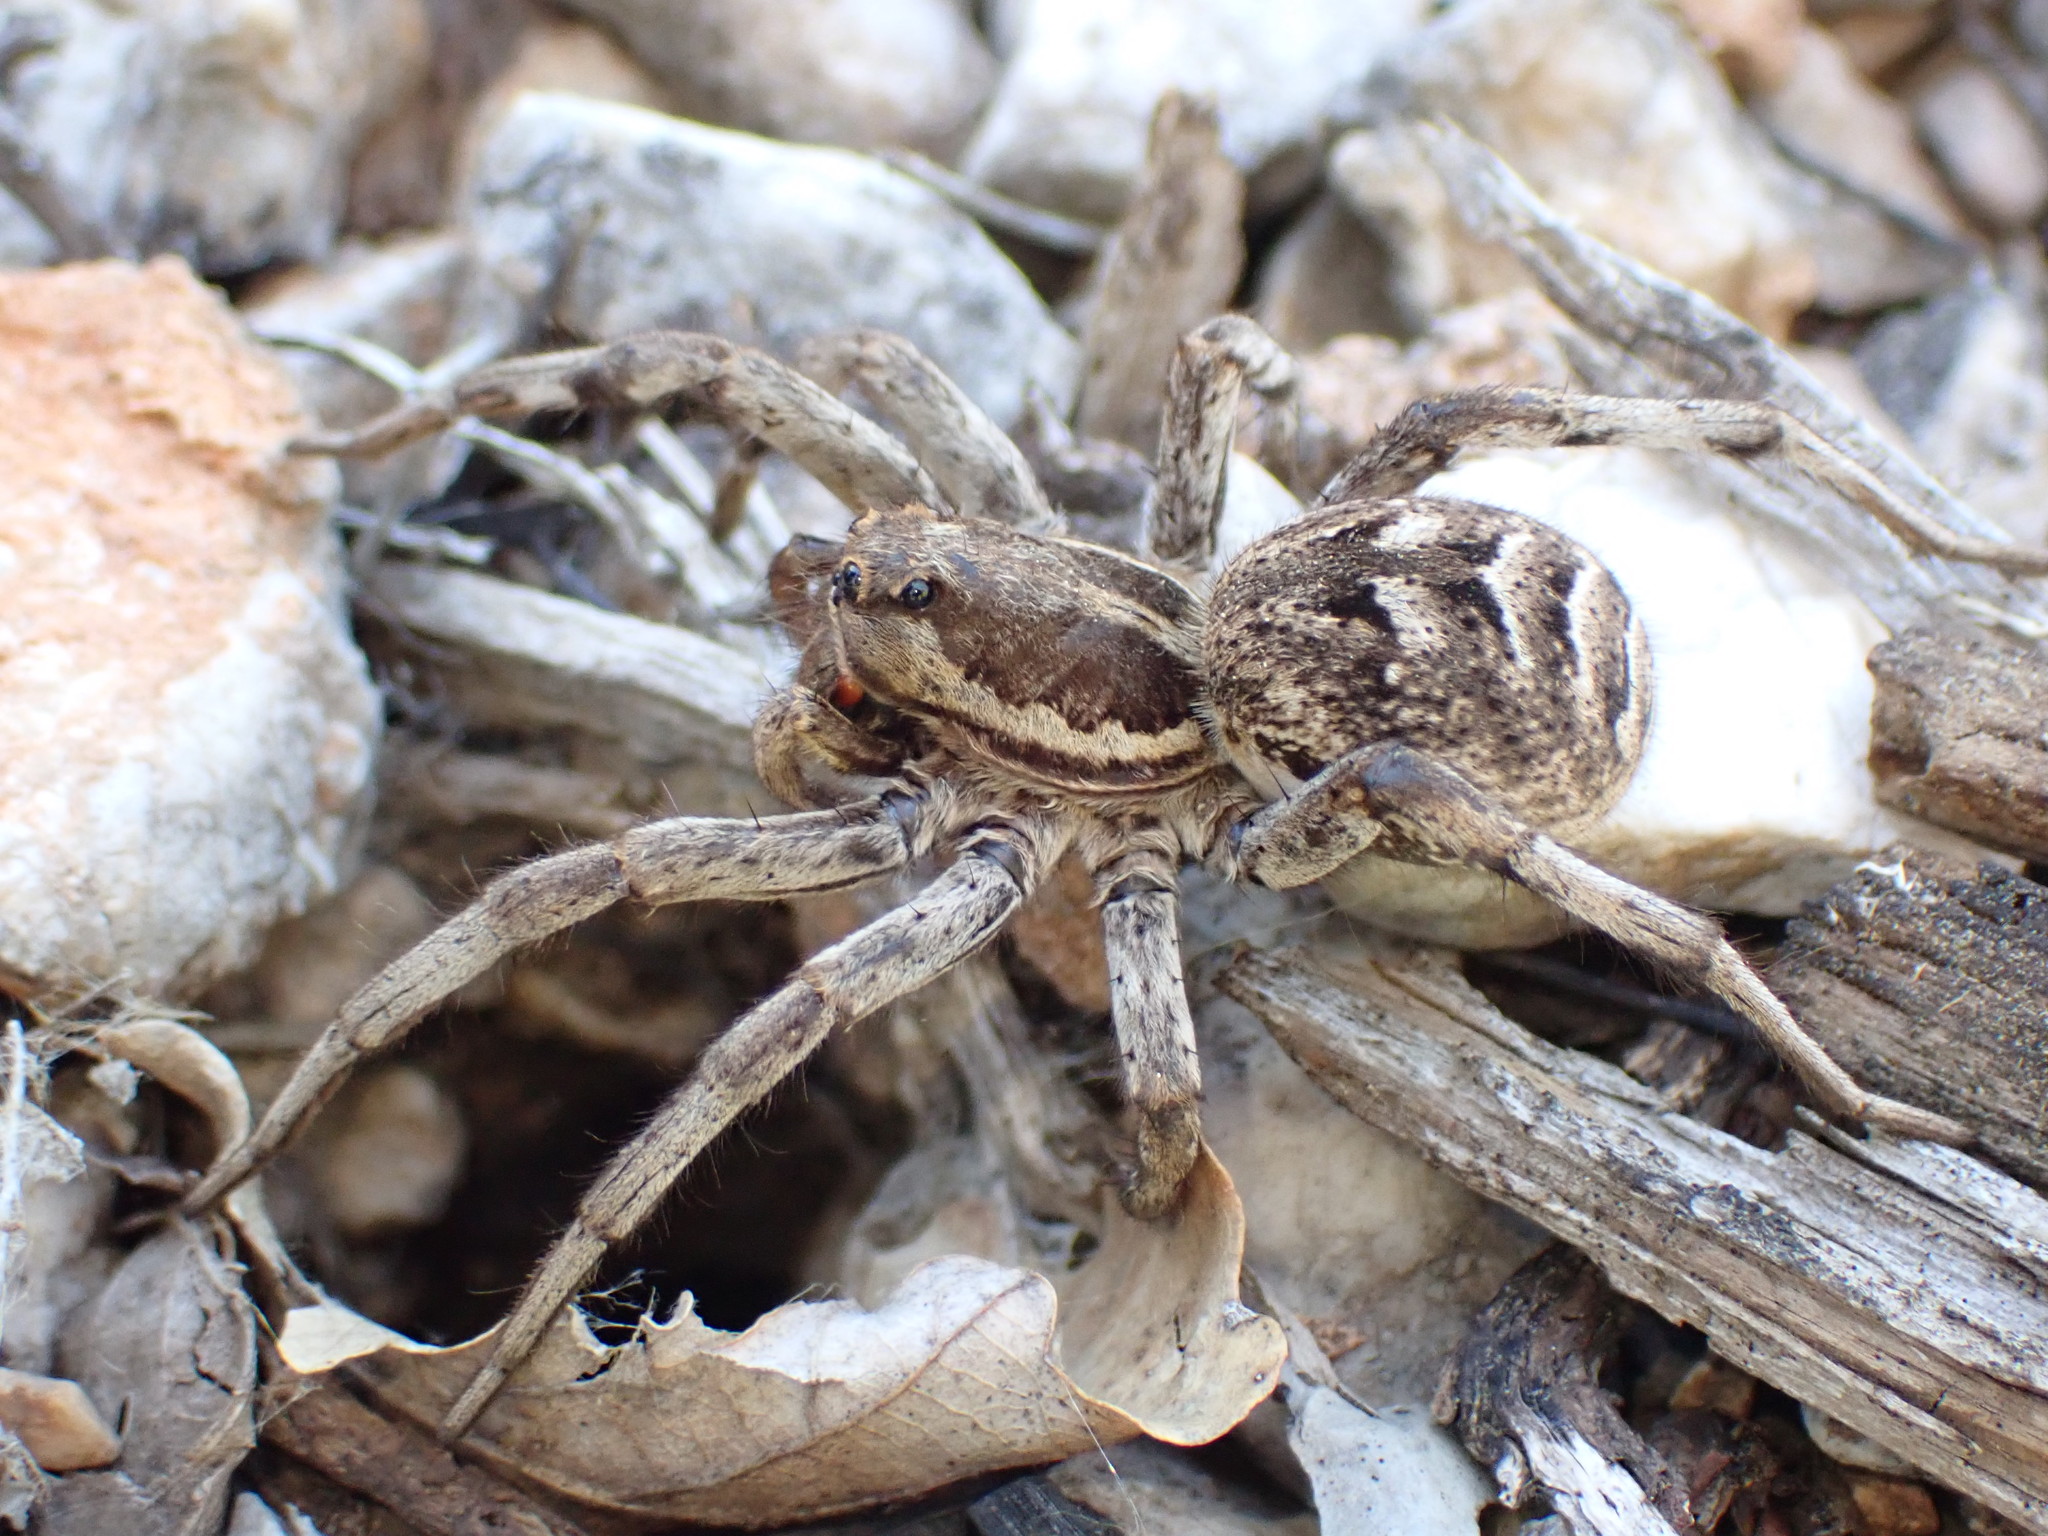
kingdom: Animalia
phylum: Arthropoda
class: Arachnida
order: Araneae
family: Lycosidae
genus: Lycosa
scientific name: Lycosa tarantula
